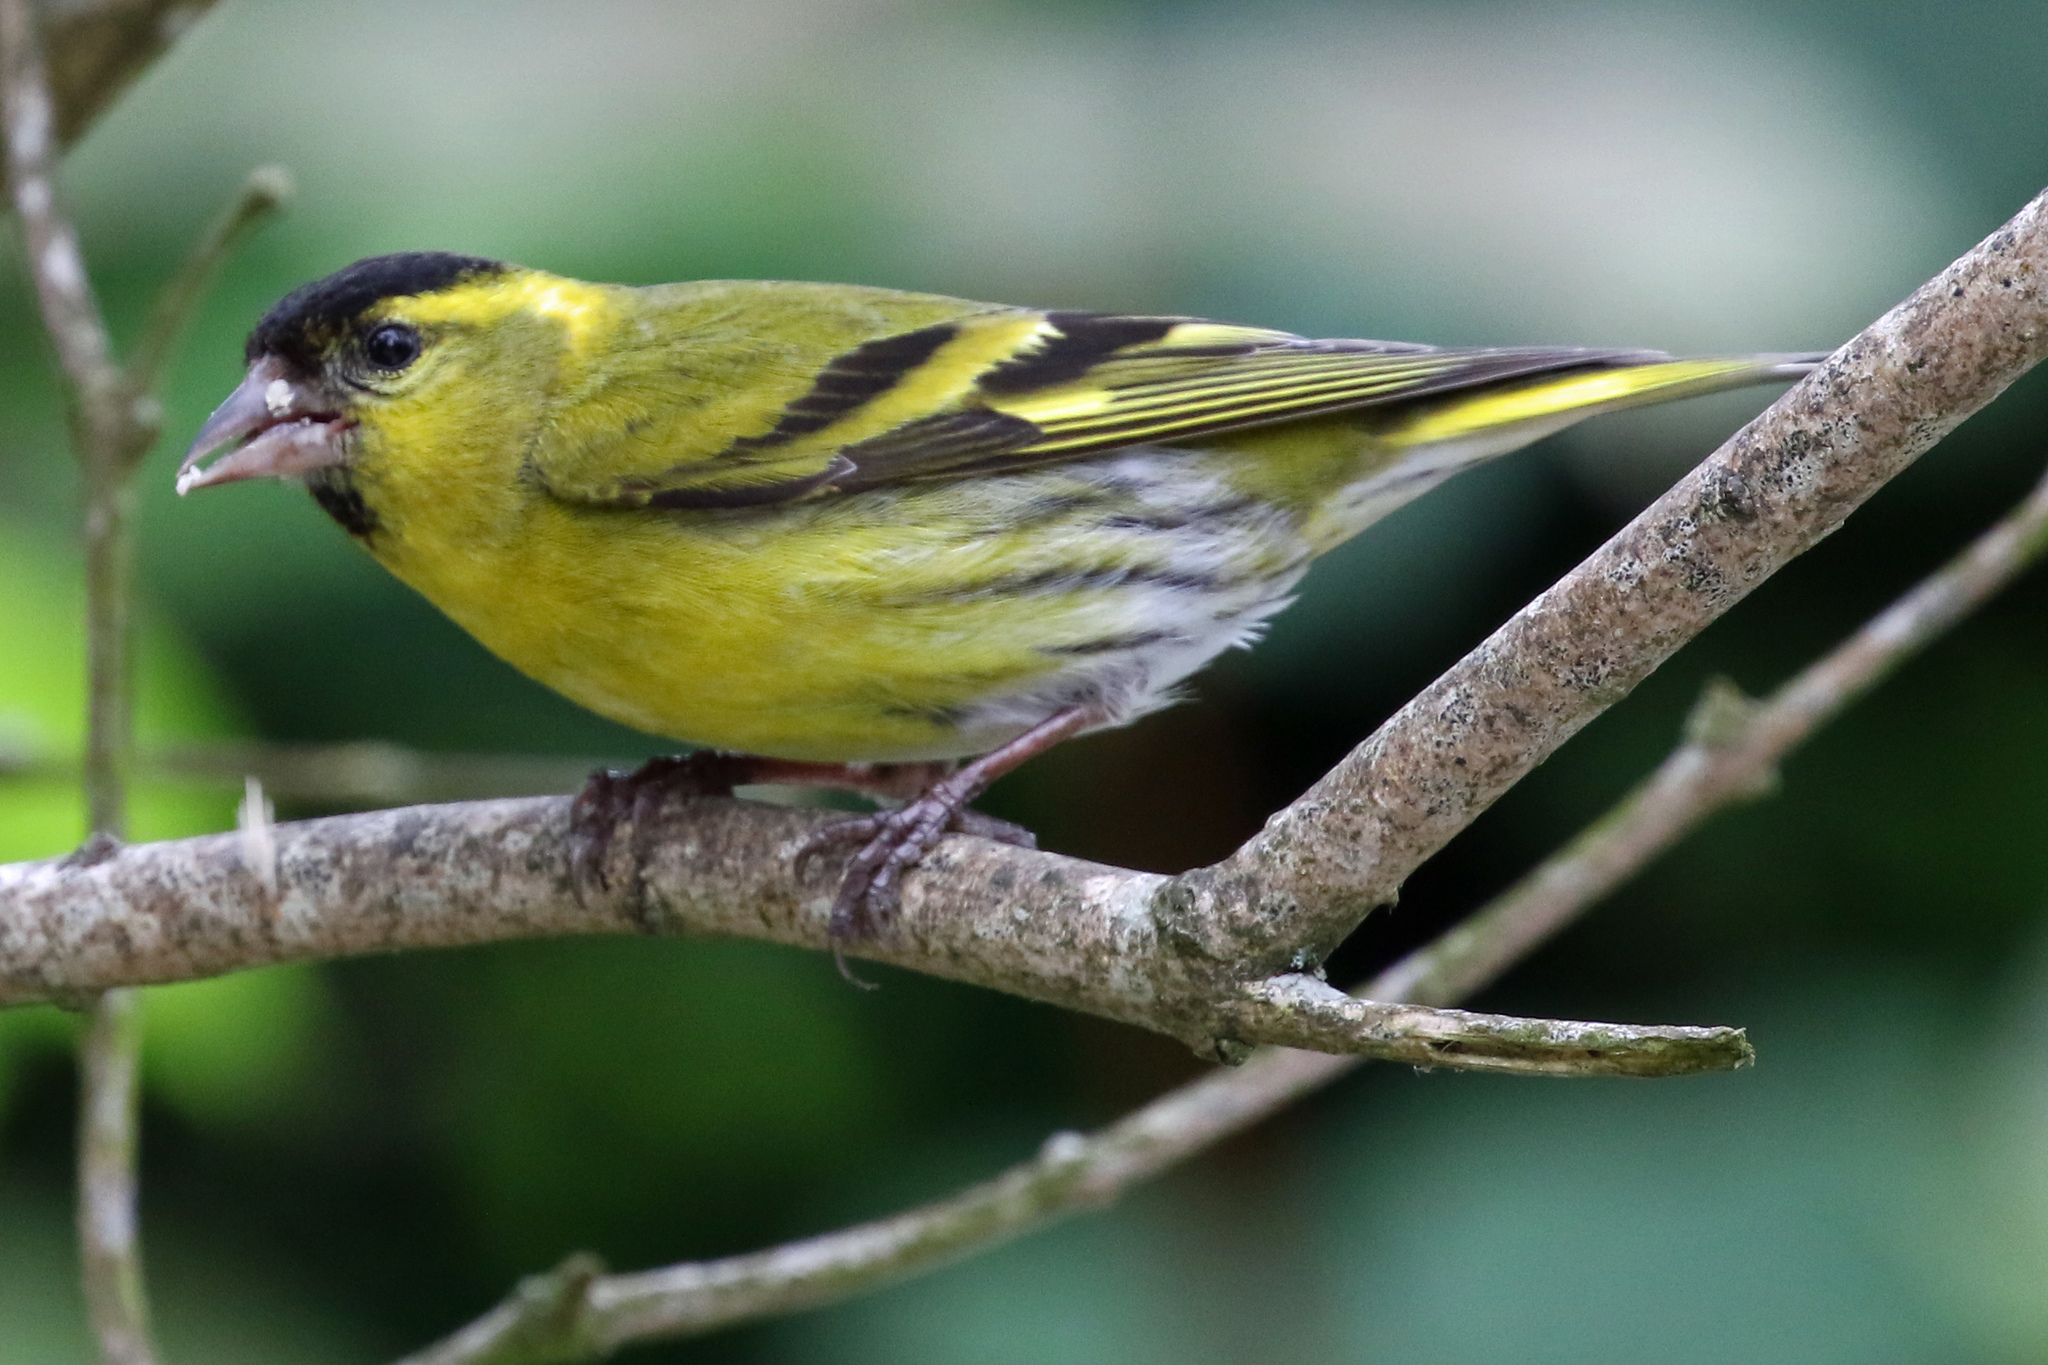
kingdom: Animalia
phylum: Chordata
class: Aves
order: Passeriformes
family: Fringillidae
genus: Spinus
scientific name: Spinus spinus
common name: Eurasian siskin
